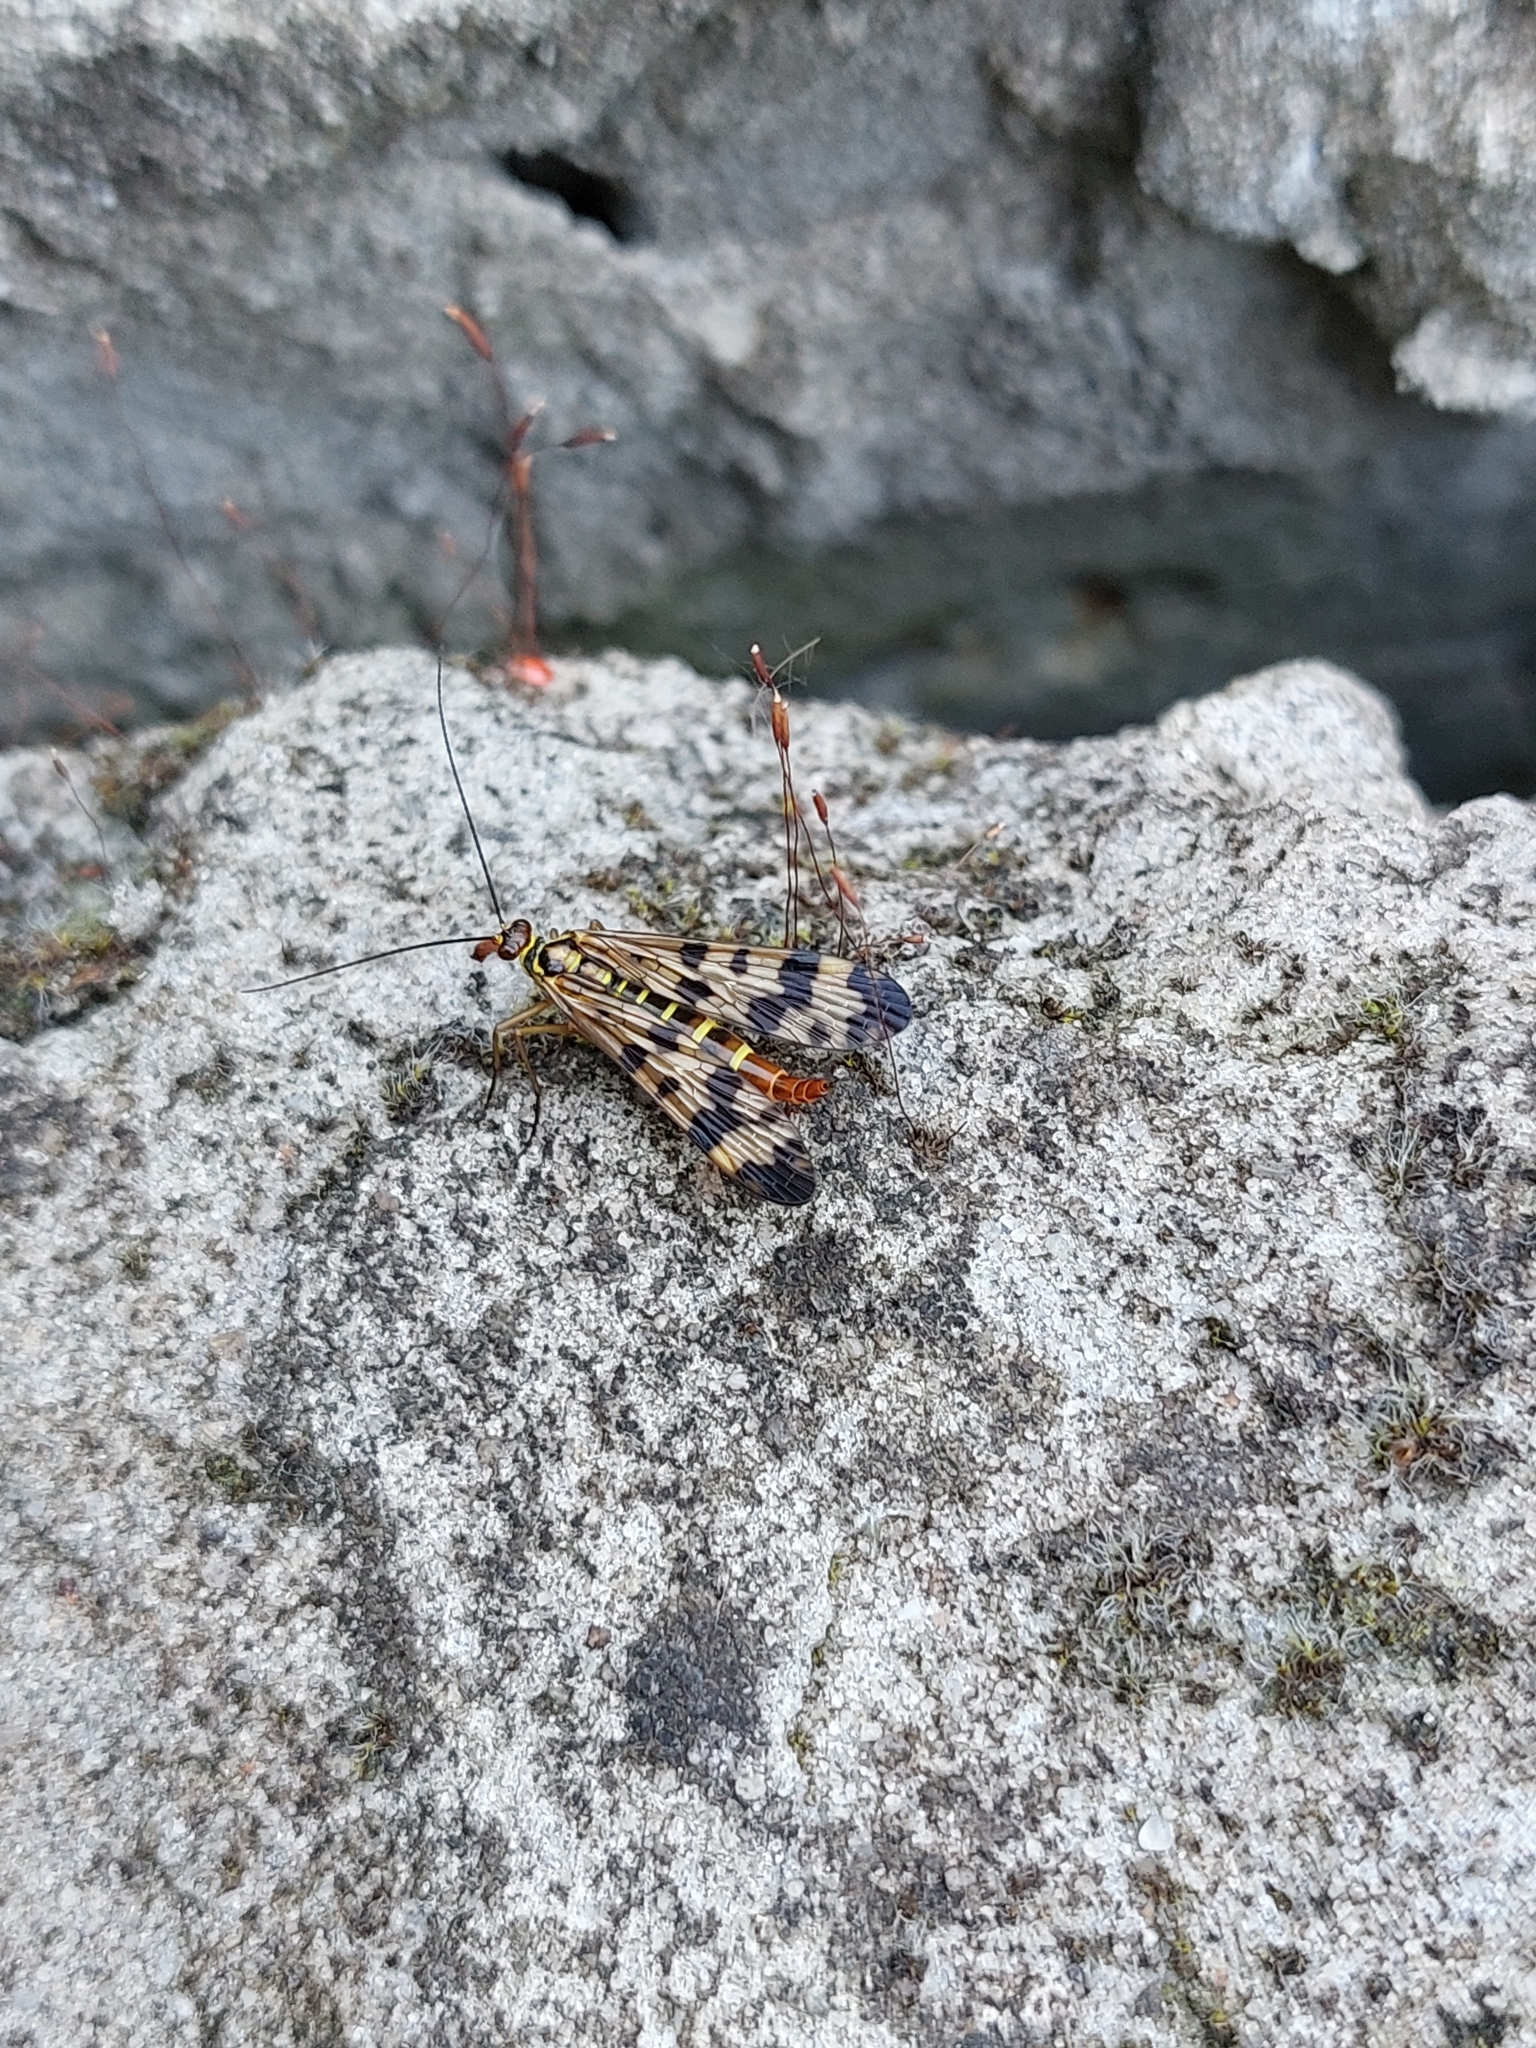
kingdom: Animalia
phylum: Arthropoda
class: Insecta
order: Mecoptera
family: Panorpidae
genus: Panorpa
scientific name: Panorpa communis
